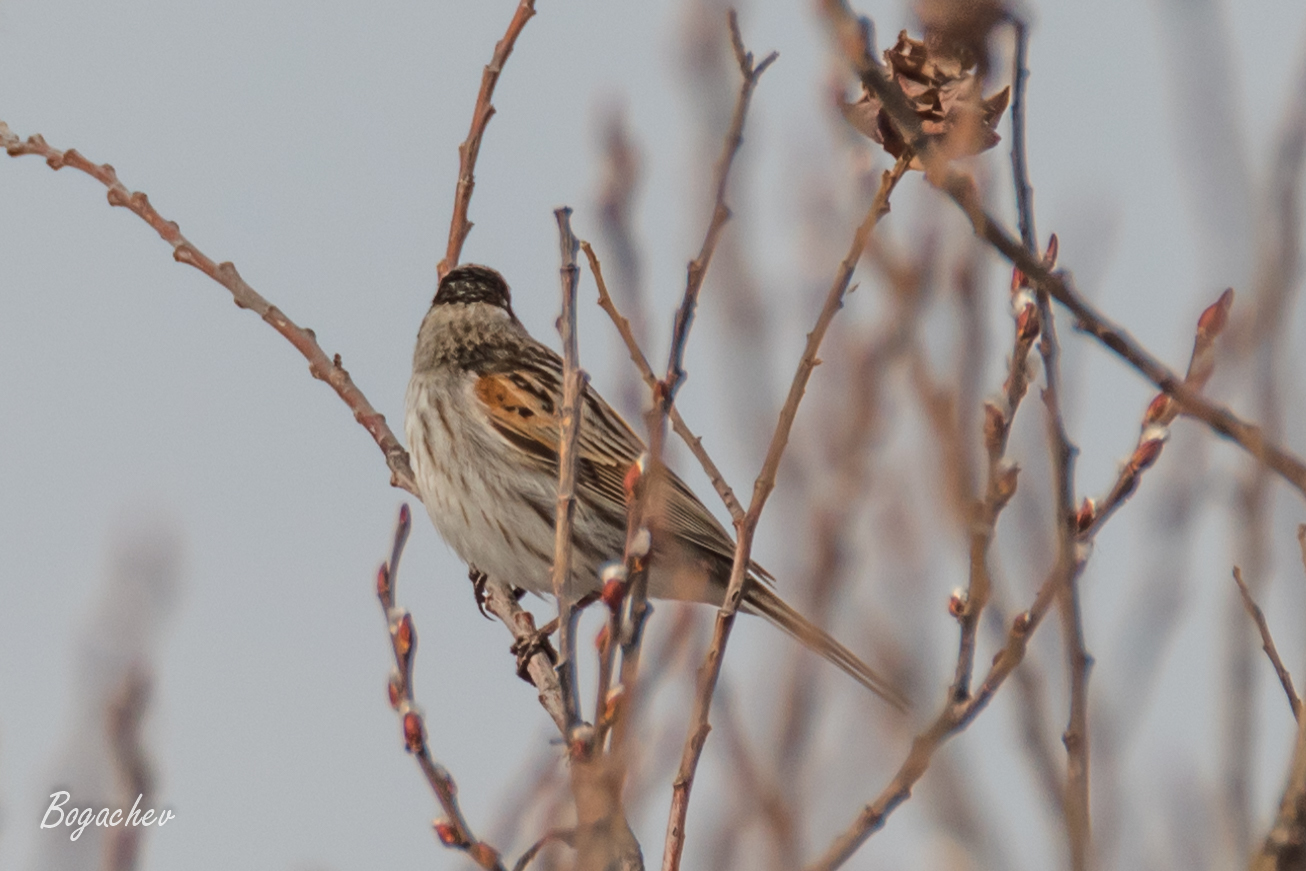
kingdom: Animalia
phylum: Chordata
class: Aves
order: Passeriformes
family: Emberizidae
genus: Emberiza
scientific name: Emberiza schoeniclus
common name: Reed bunting
